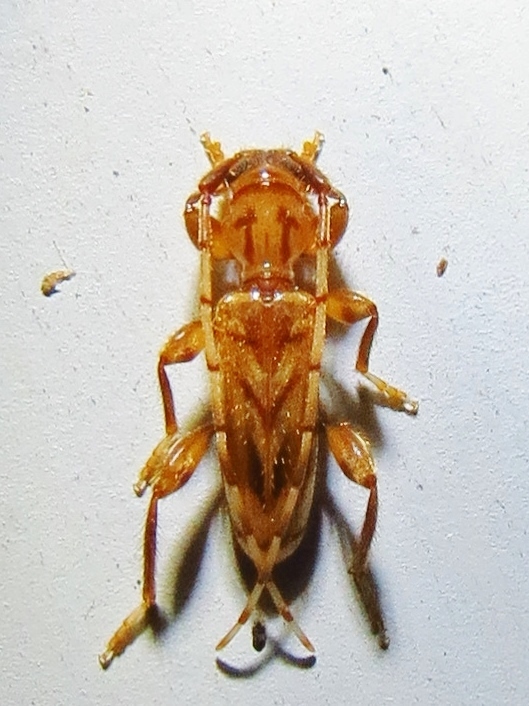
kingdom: Animalia
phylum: Arthropoda
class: Insecta
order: Coleoptera
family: Cerambycidae
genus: Obrium
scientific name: Obrium maculatum
